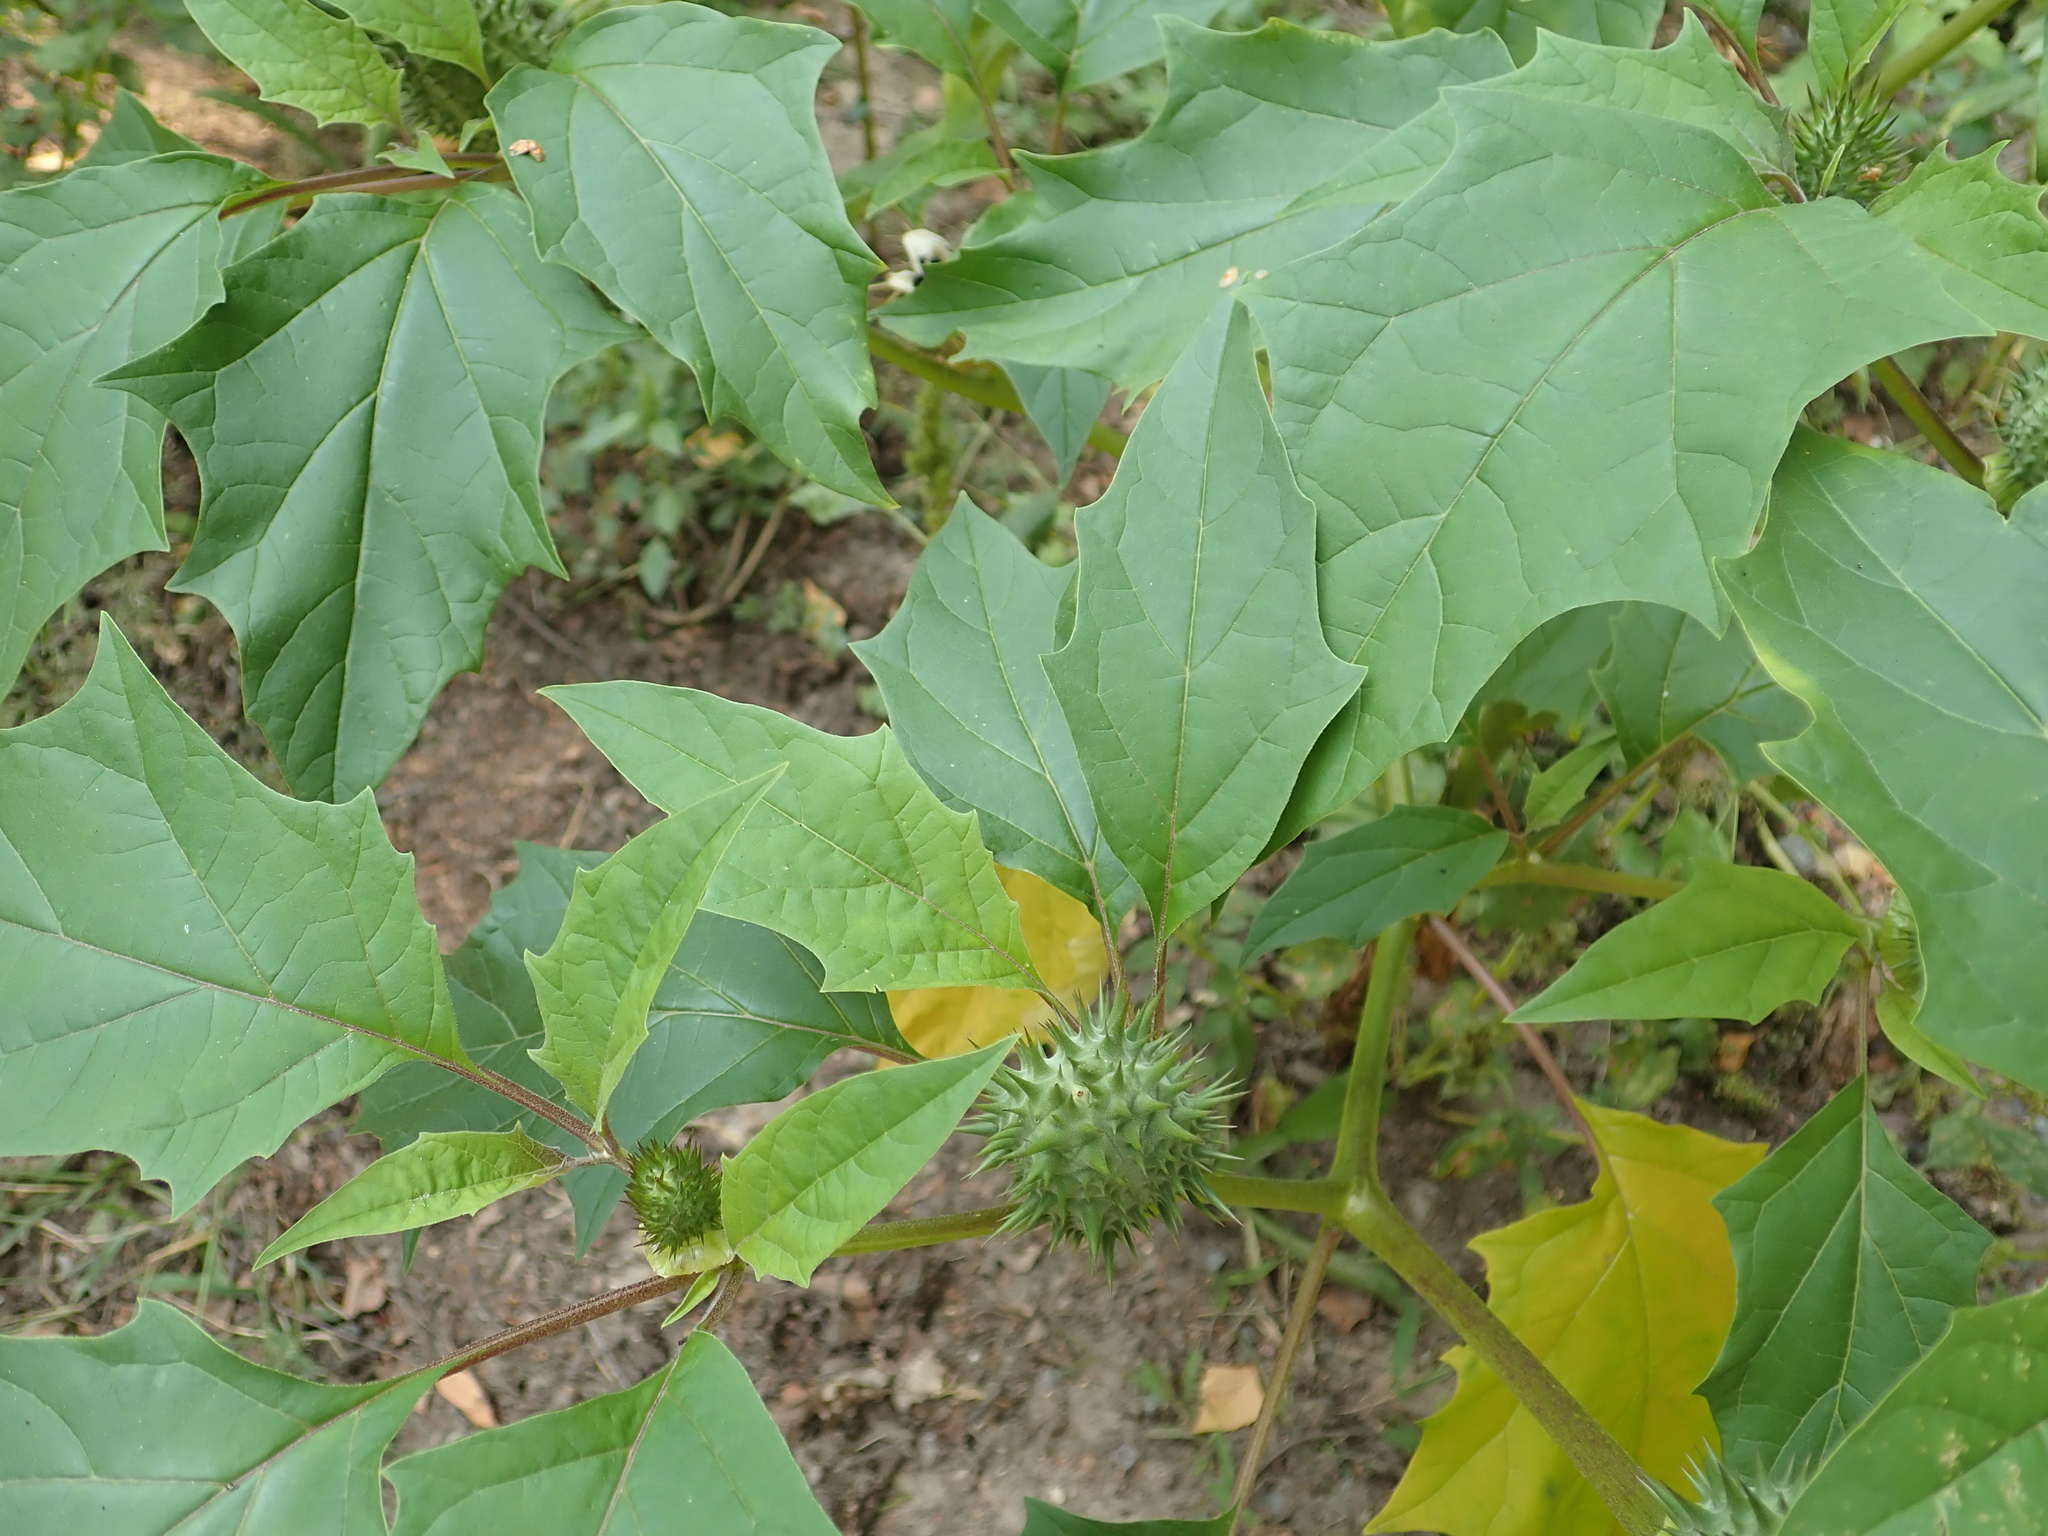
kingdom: Plantae
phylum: Tracheophyta
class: Magnoliopsida
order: Solanales
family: Solanaceae
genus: Datura
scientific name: Datura stramonium
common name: Thorn-apple
